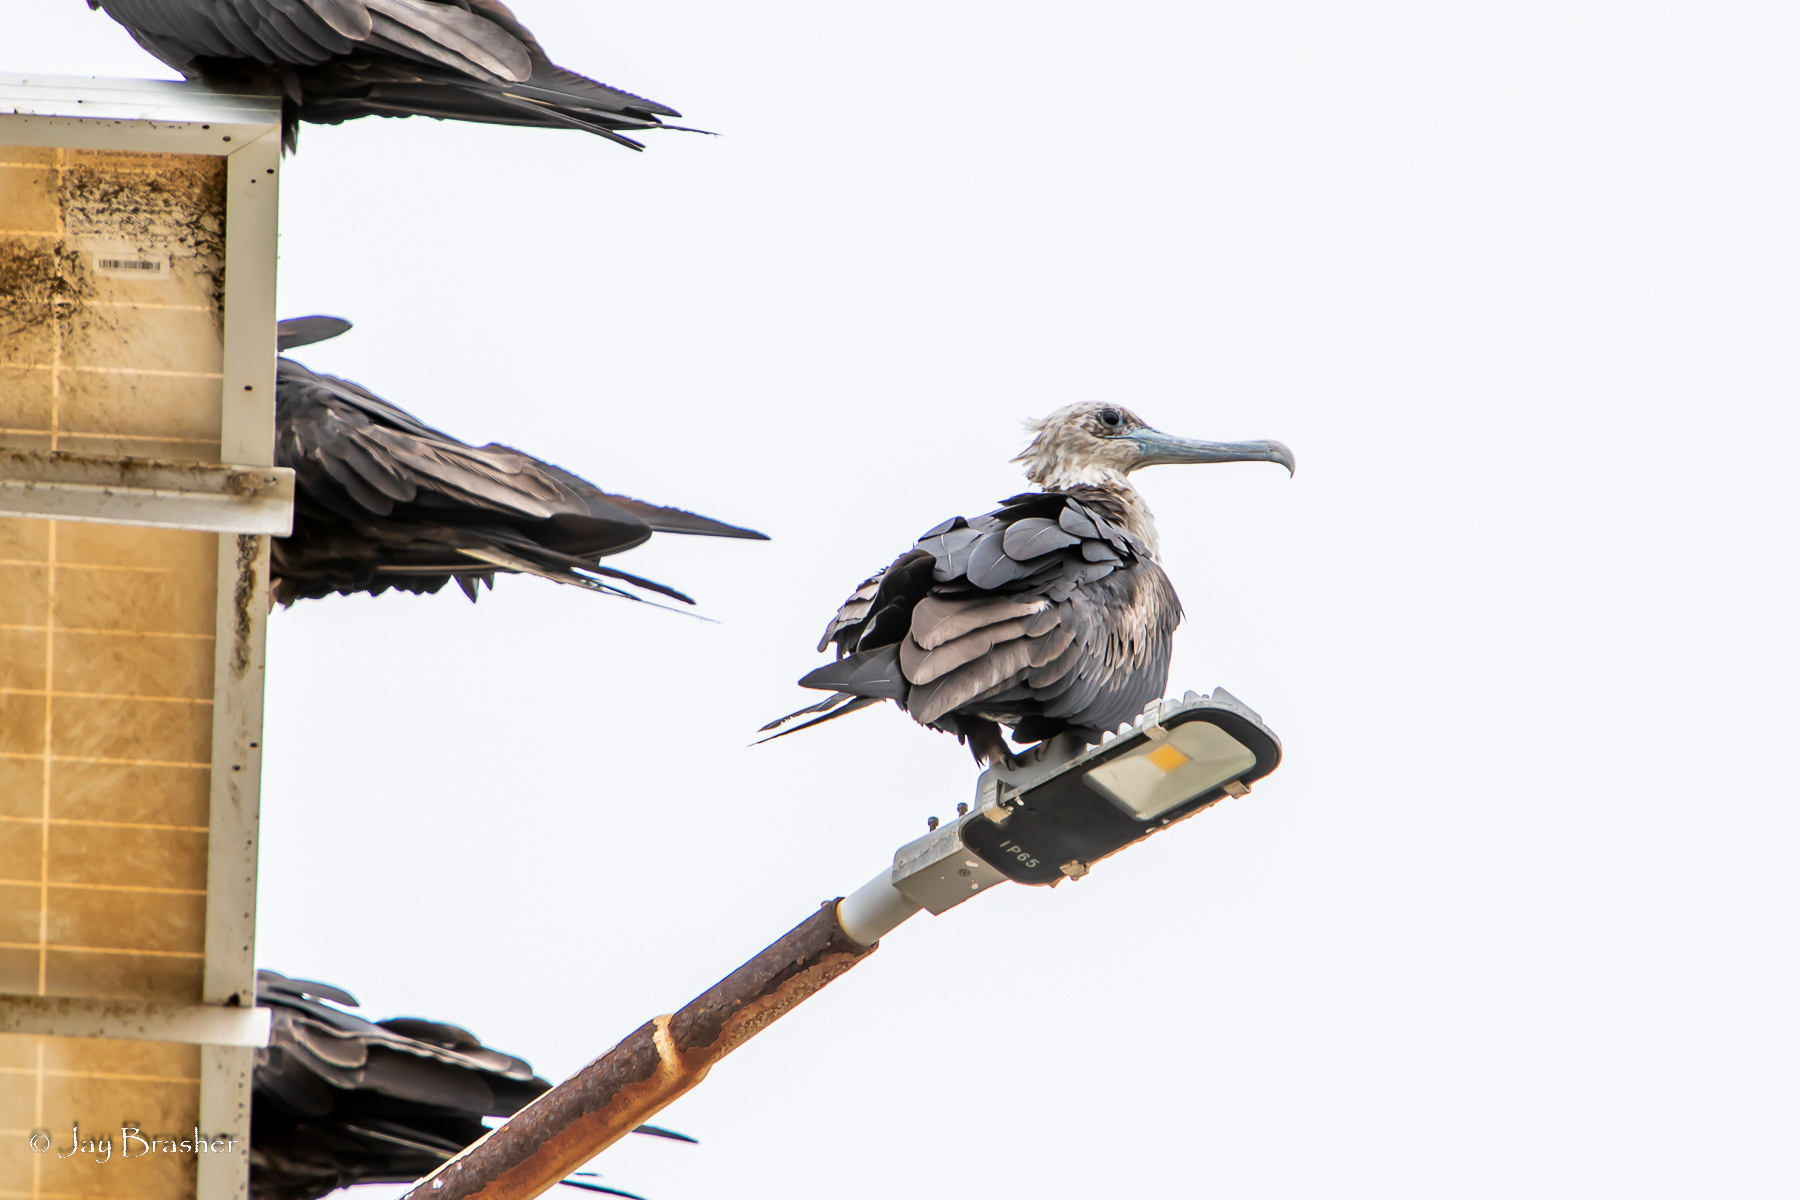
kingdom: Animalia
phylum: Chordata
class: Aves
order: Suliformes
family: Fregatidae
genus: Fregata
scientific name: Fregata magnificens
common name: Magnificent frigatebird
